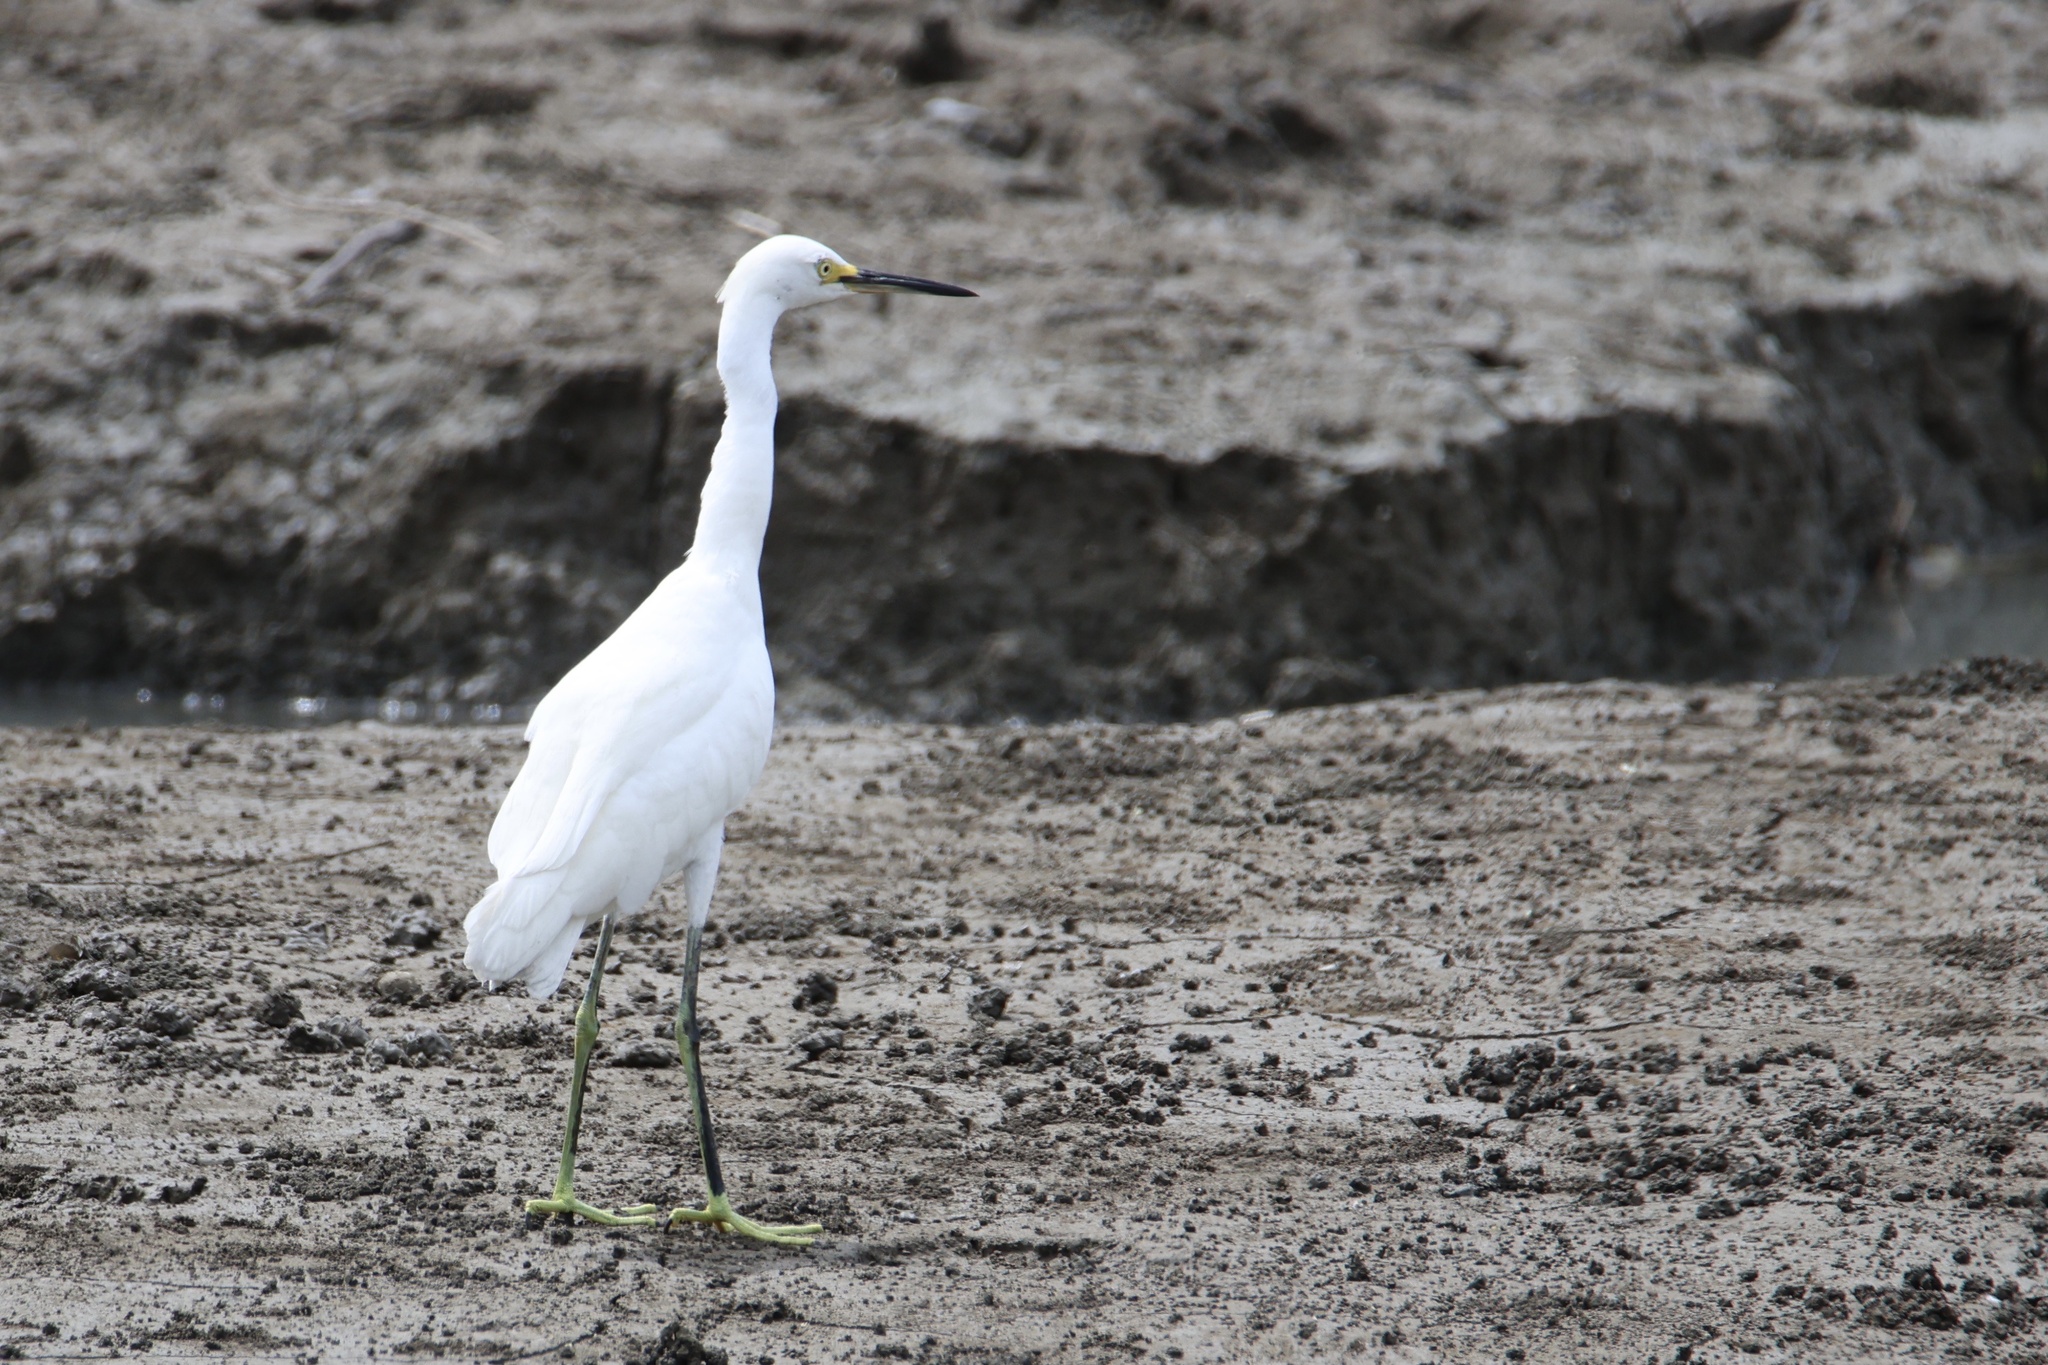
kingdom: Animalia
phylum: Chordata
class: Aves
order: Pelecaniformes
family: Ardeidae
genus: Egretta
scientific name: Egretta thula
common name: Snowy egret
